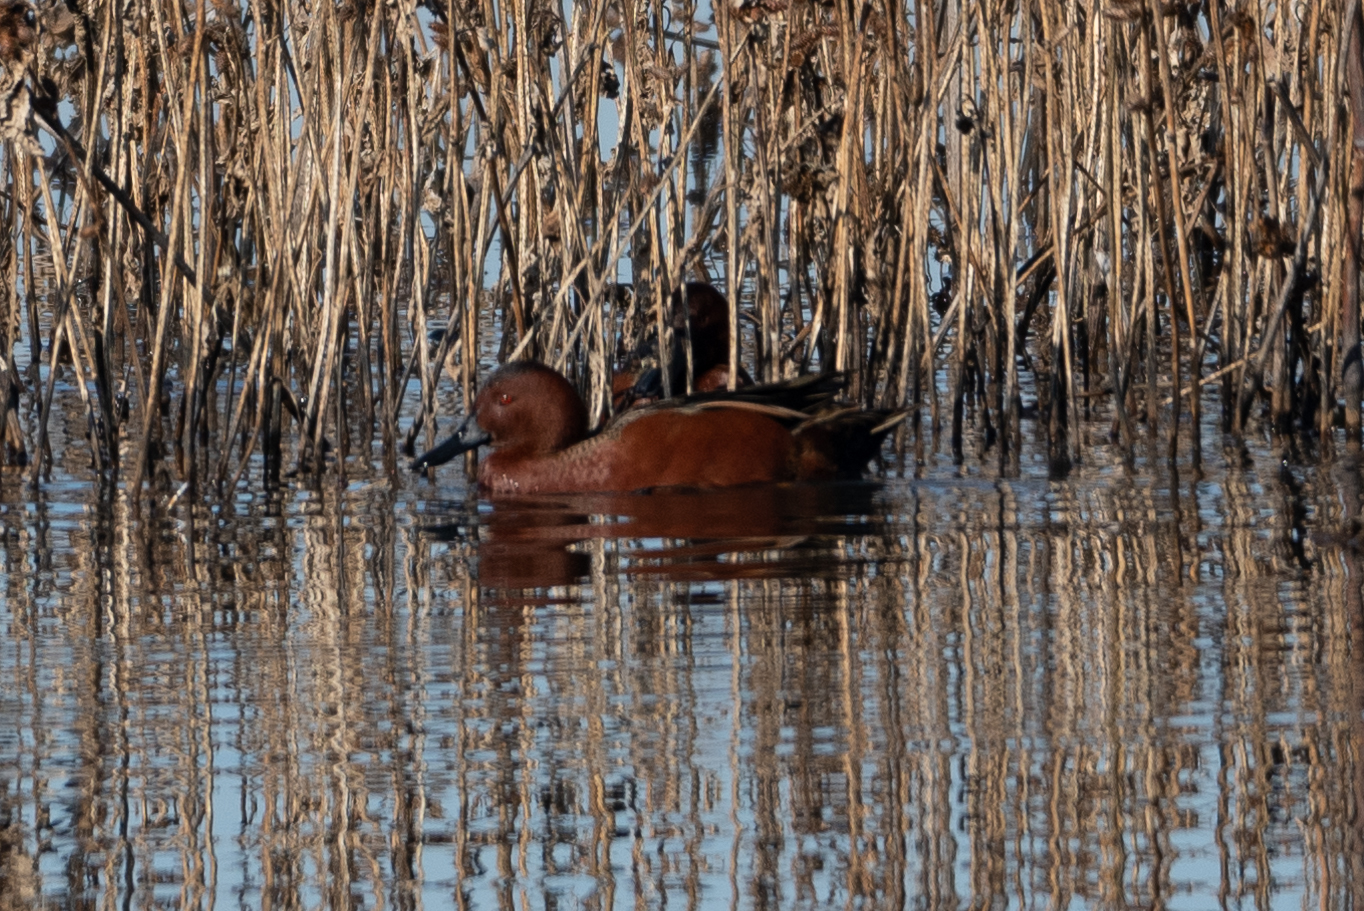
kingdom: Animalia
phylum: Chordata
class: Aves
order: Anseriformes
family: Anatidae
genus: Spatula
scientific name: Spatula cyanoptera
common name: Cinnamon teal
